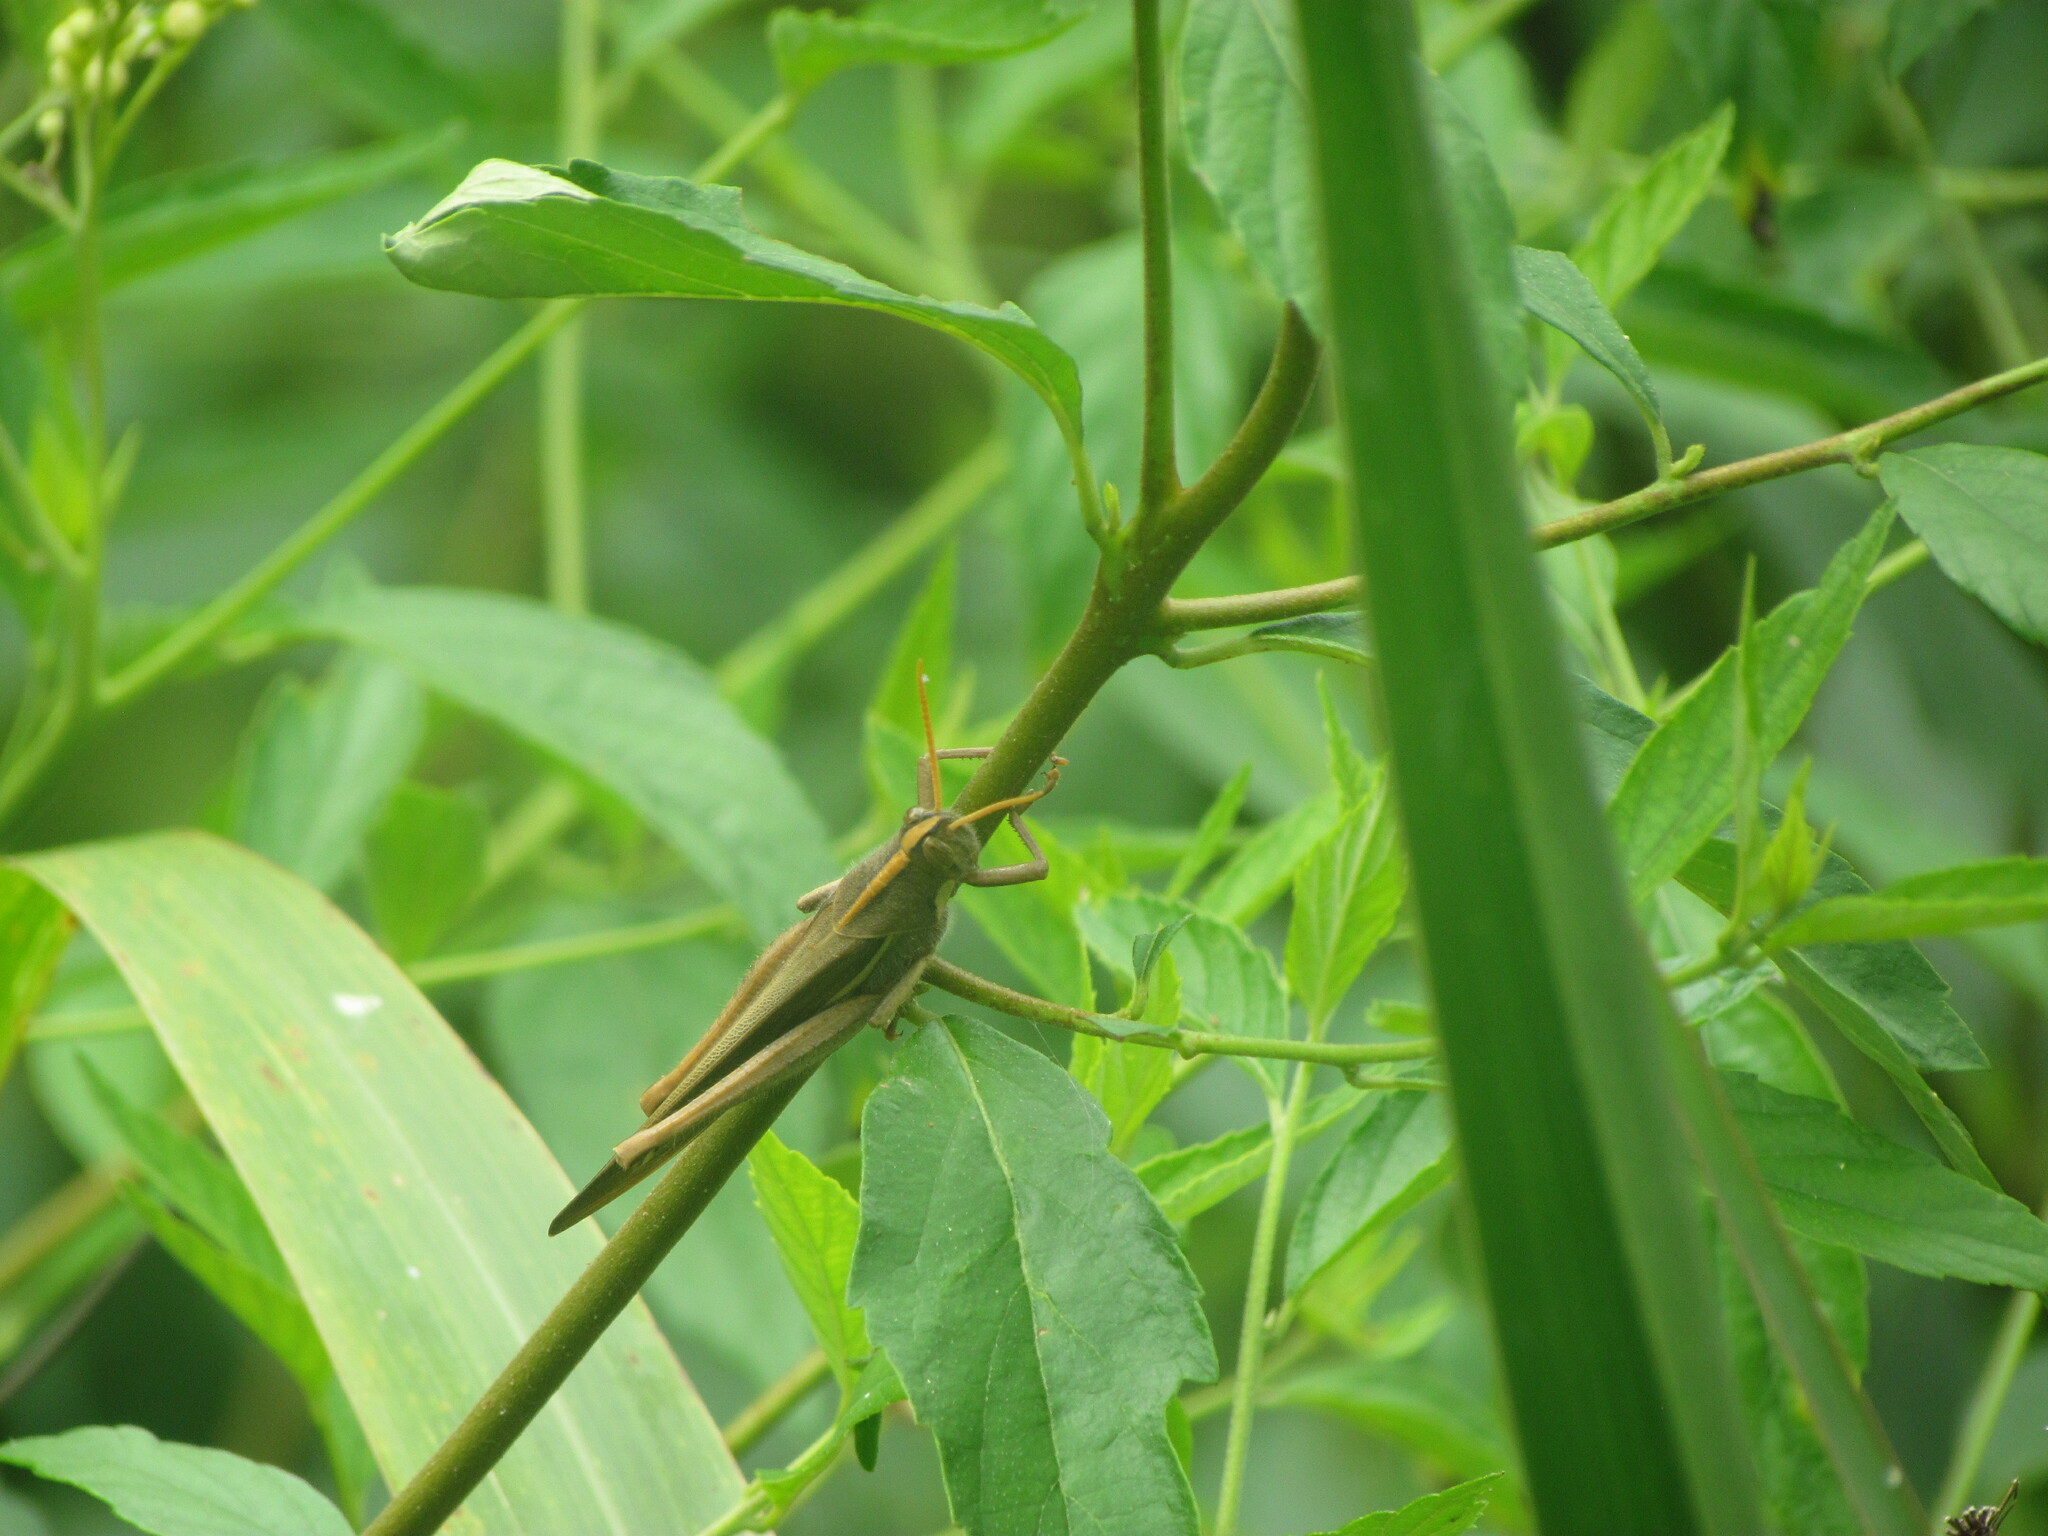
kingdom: Animalia
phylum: Arthropoda
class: Insecta
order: Orthoptera
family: Acrididae
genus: Schistocerca
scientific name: Schistocerca flavofasciata
